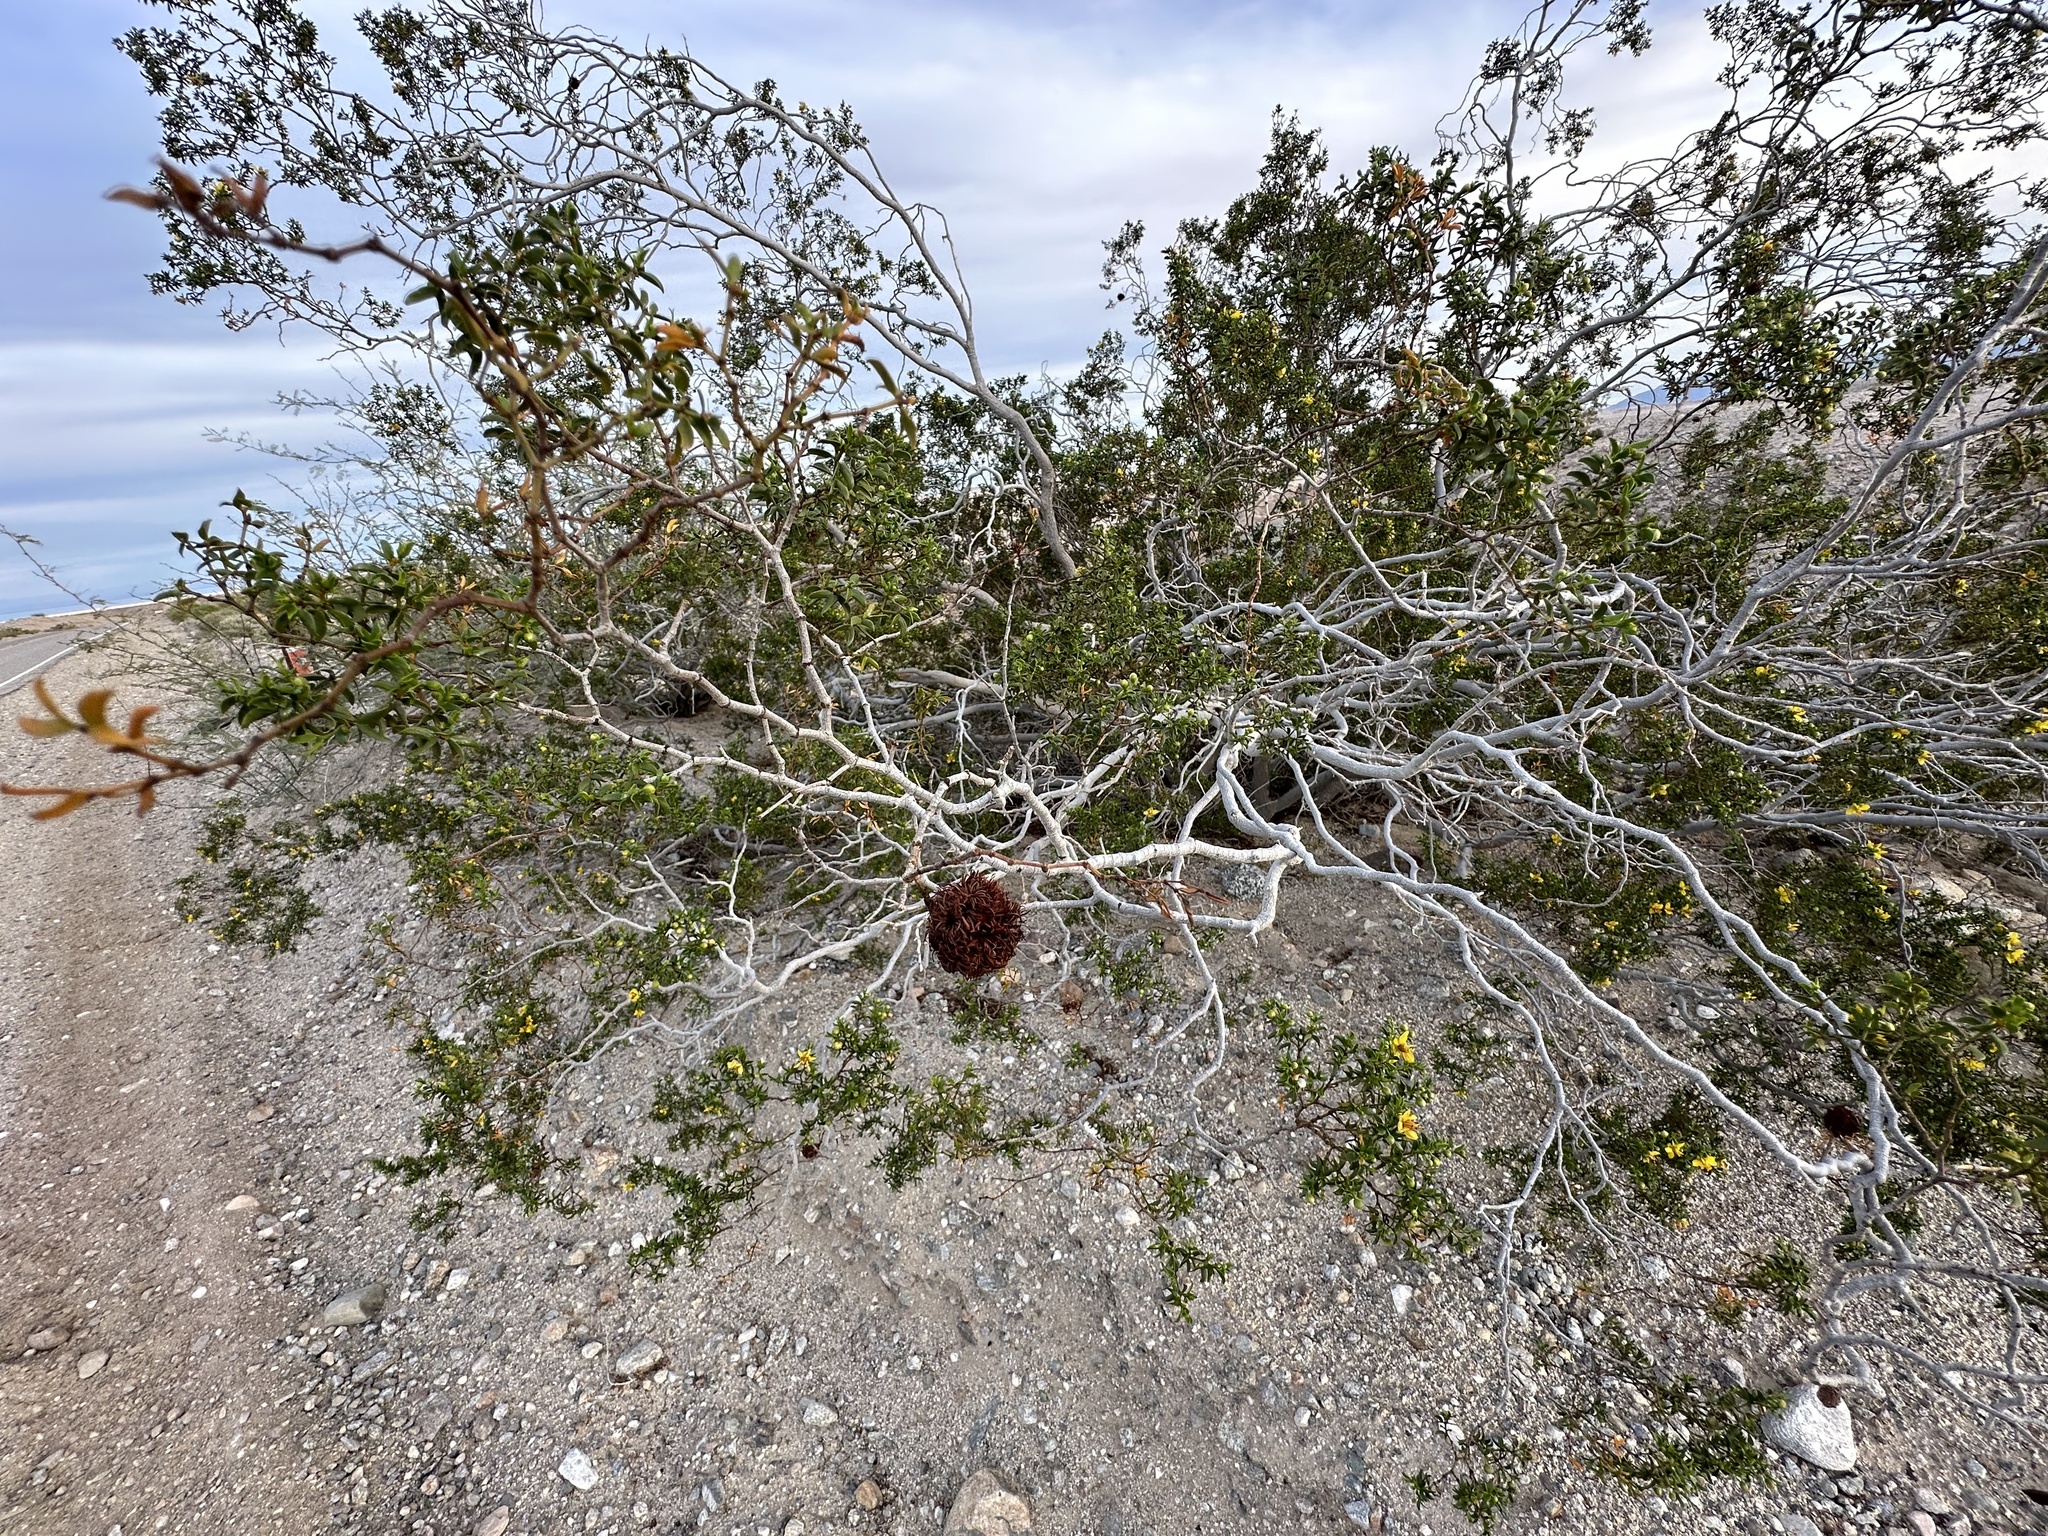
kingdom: Animalia
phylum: Arthropoda
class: Insecta
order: Diptera
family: Cecidomyiidae
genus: Asphondylia
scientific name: Asphondylia auripila
